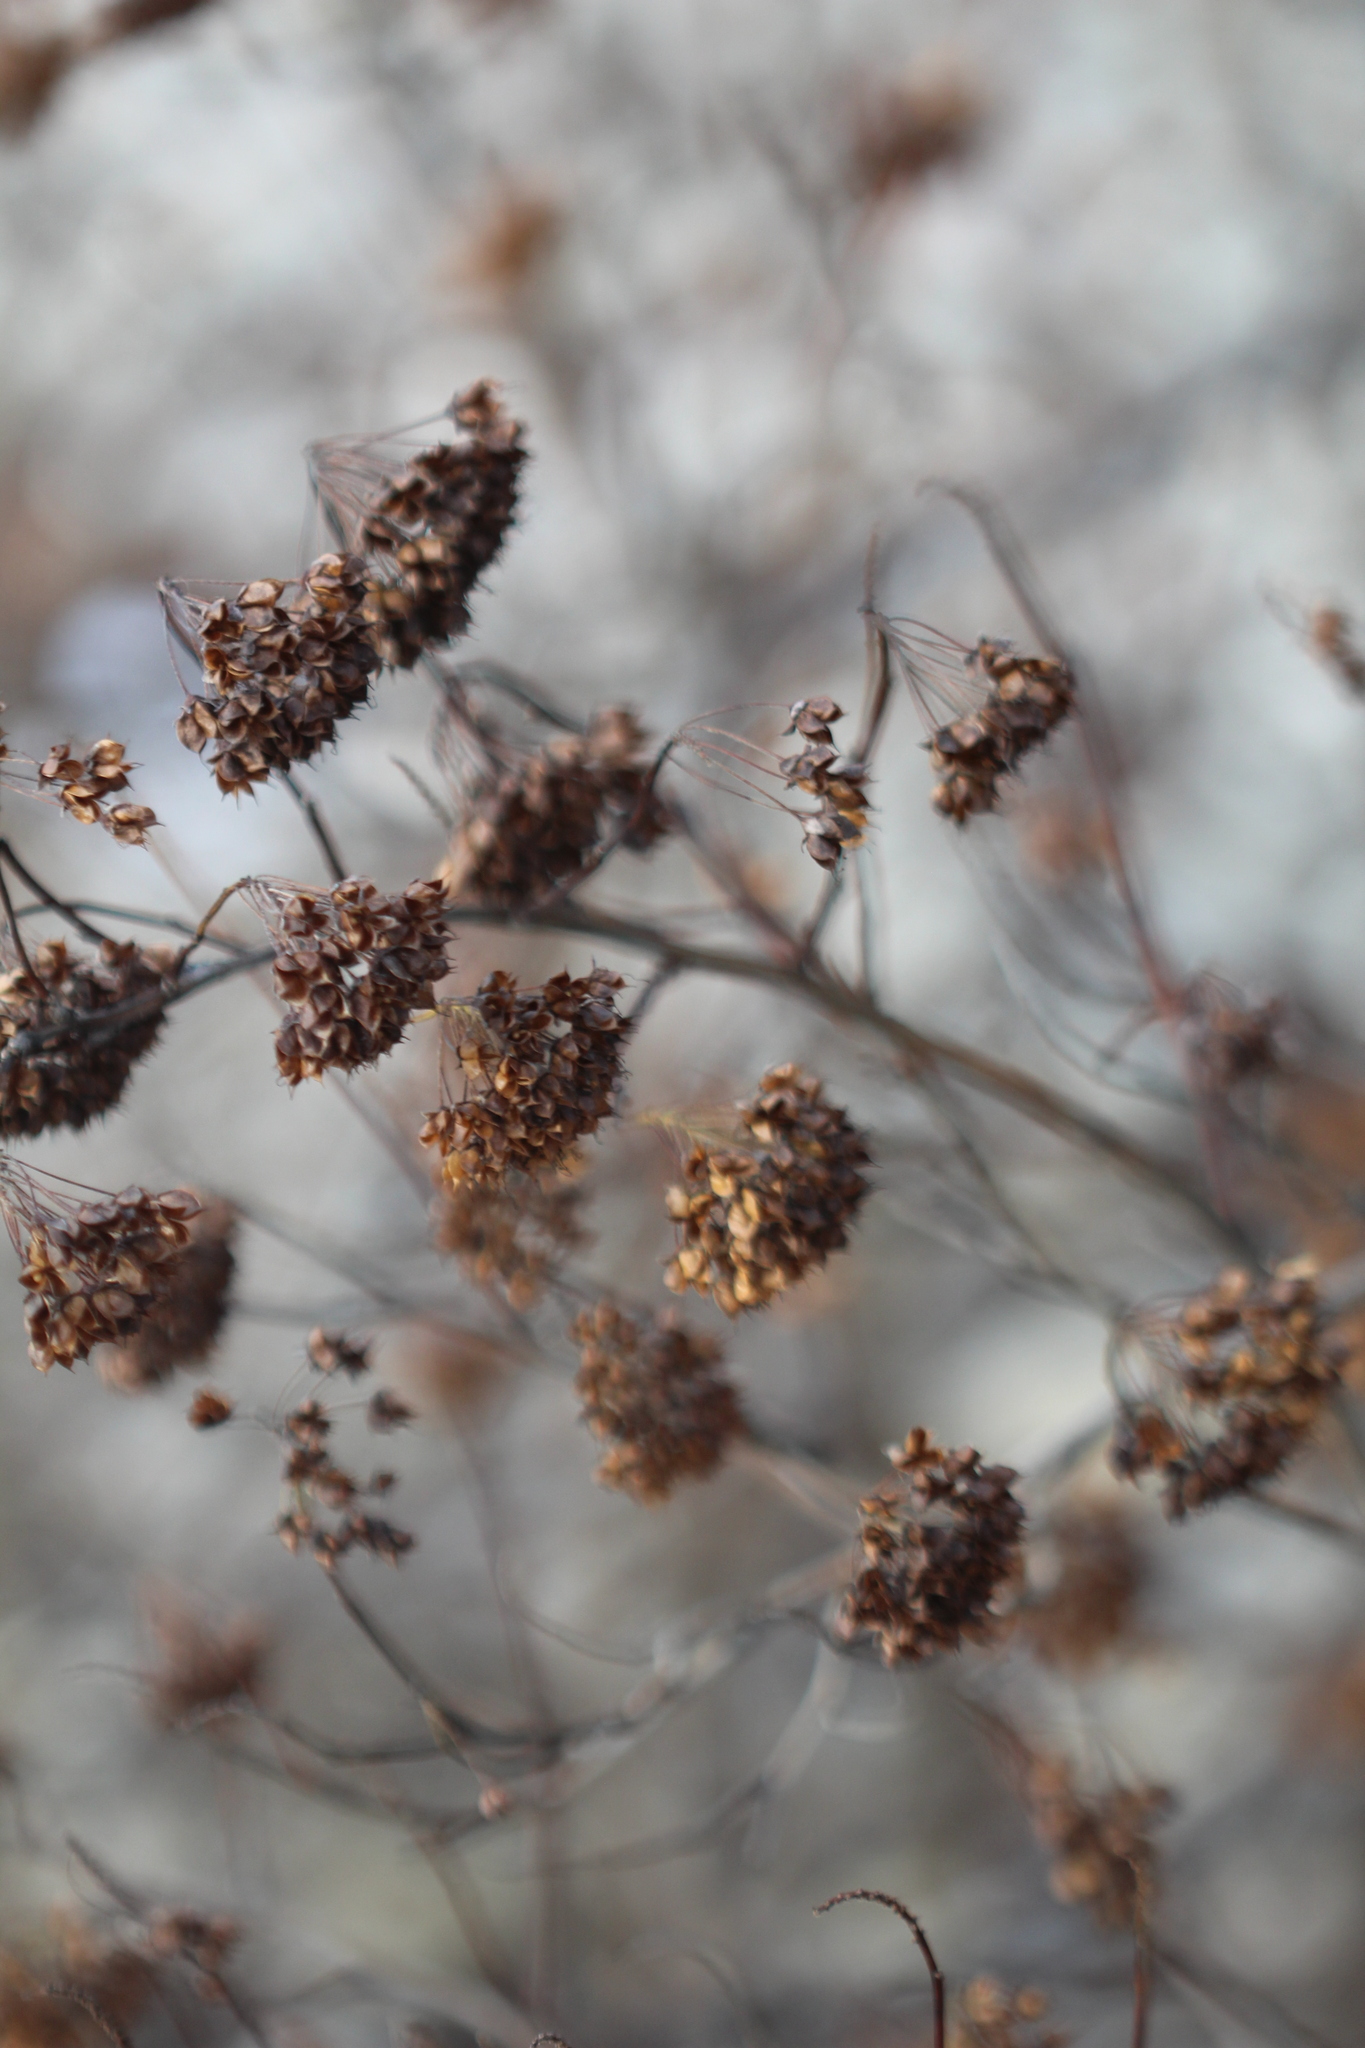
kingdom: Plantae
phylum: Tracheophyta
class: Magnoliopsida
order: Rosales
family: Rosaceae
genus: Physocarpus
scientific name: Physocarpus opulifolius
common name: Ninebark
